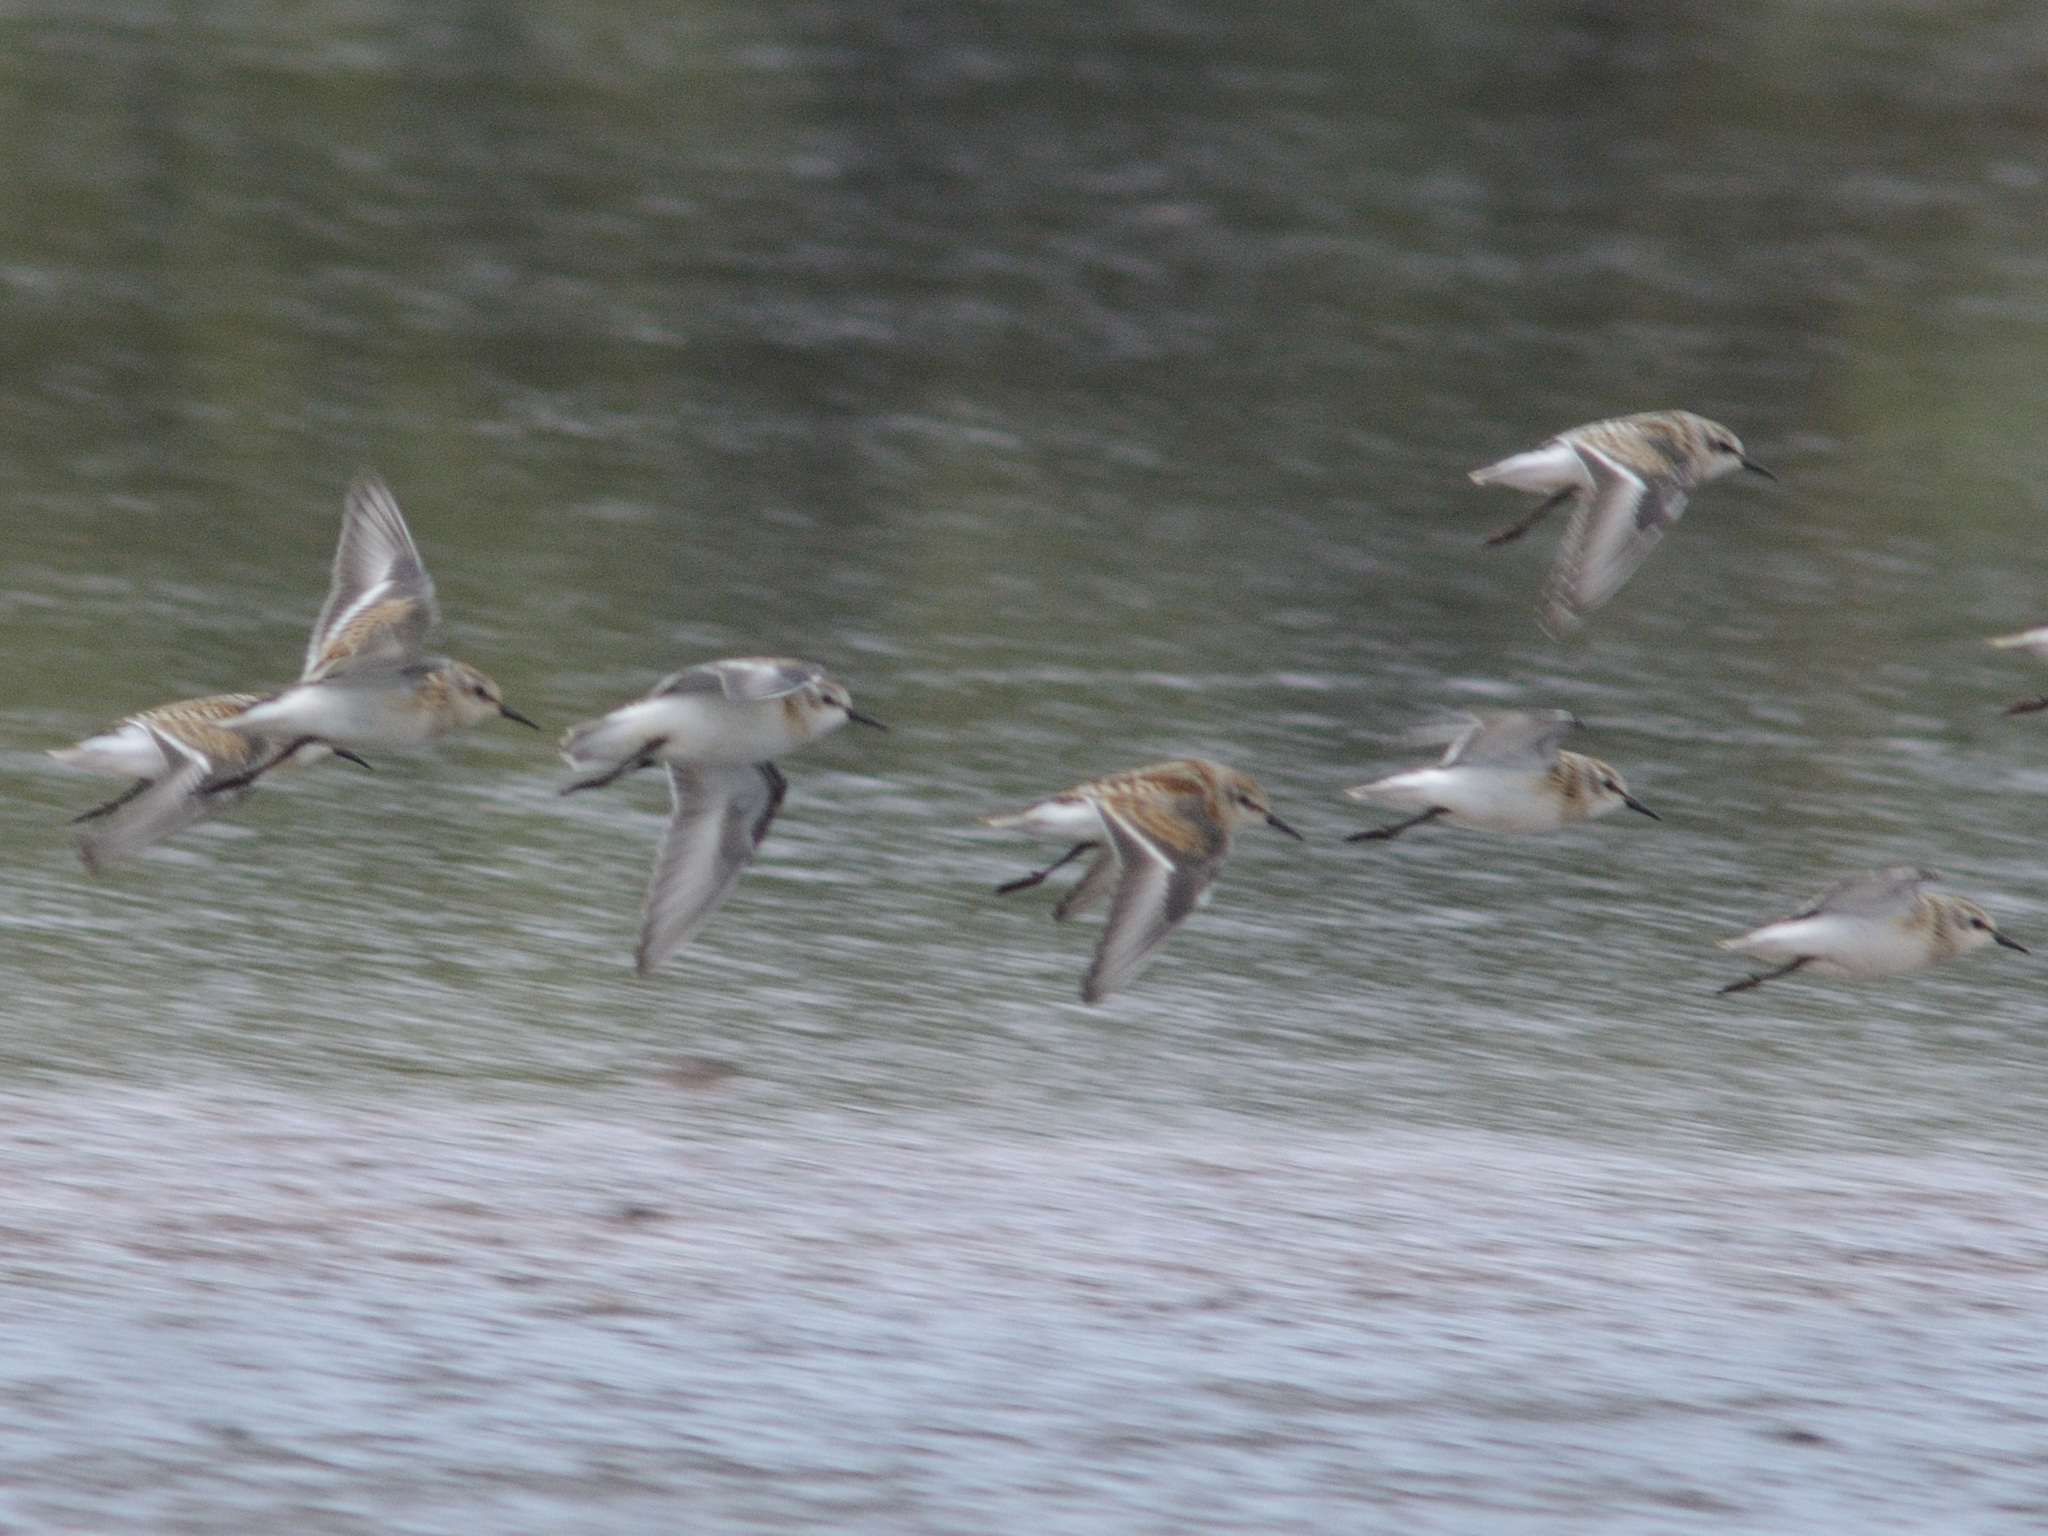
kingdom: Animalia
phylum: Chordata
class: Aves
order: Charadriiformes
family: Scolopacidae
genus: Calidris
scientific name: Calidris minuta
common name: Little stint
